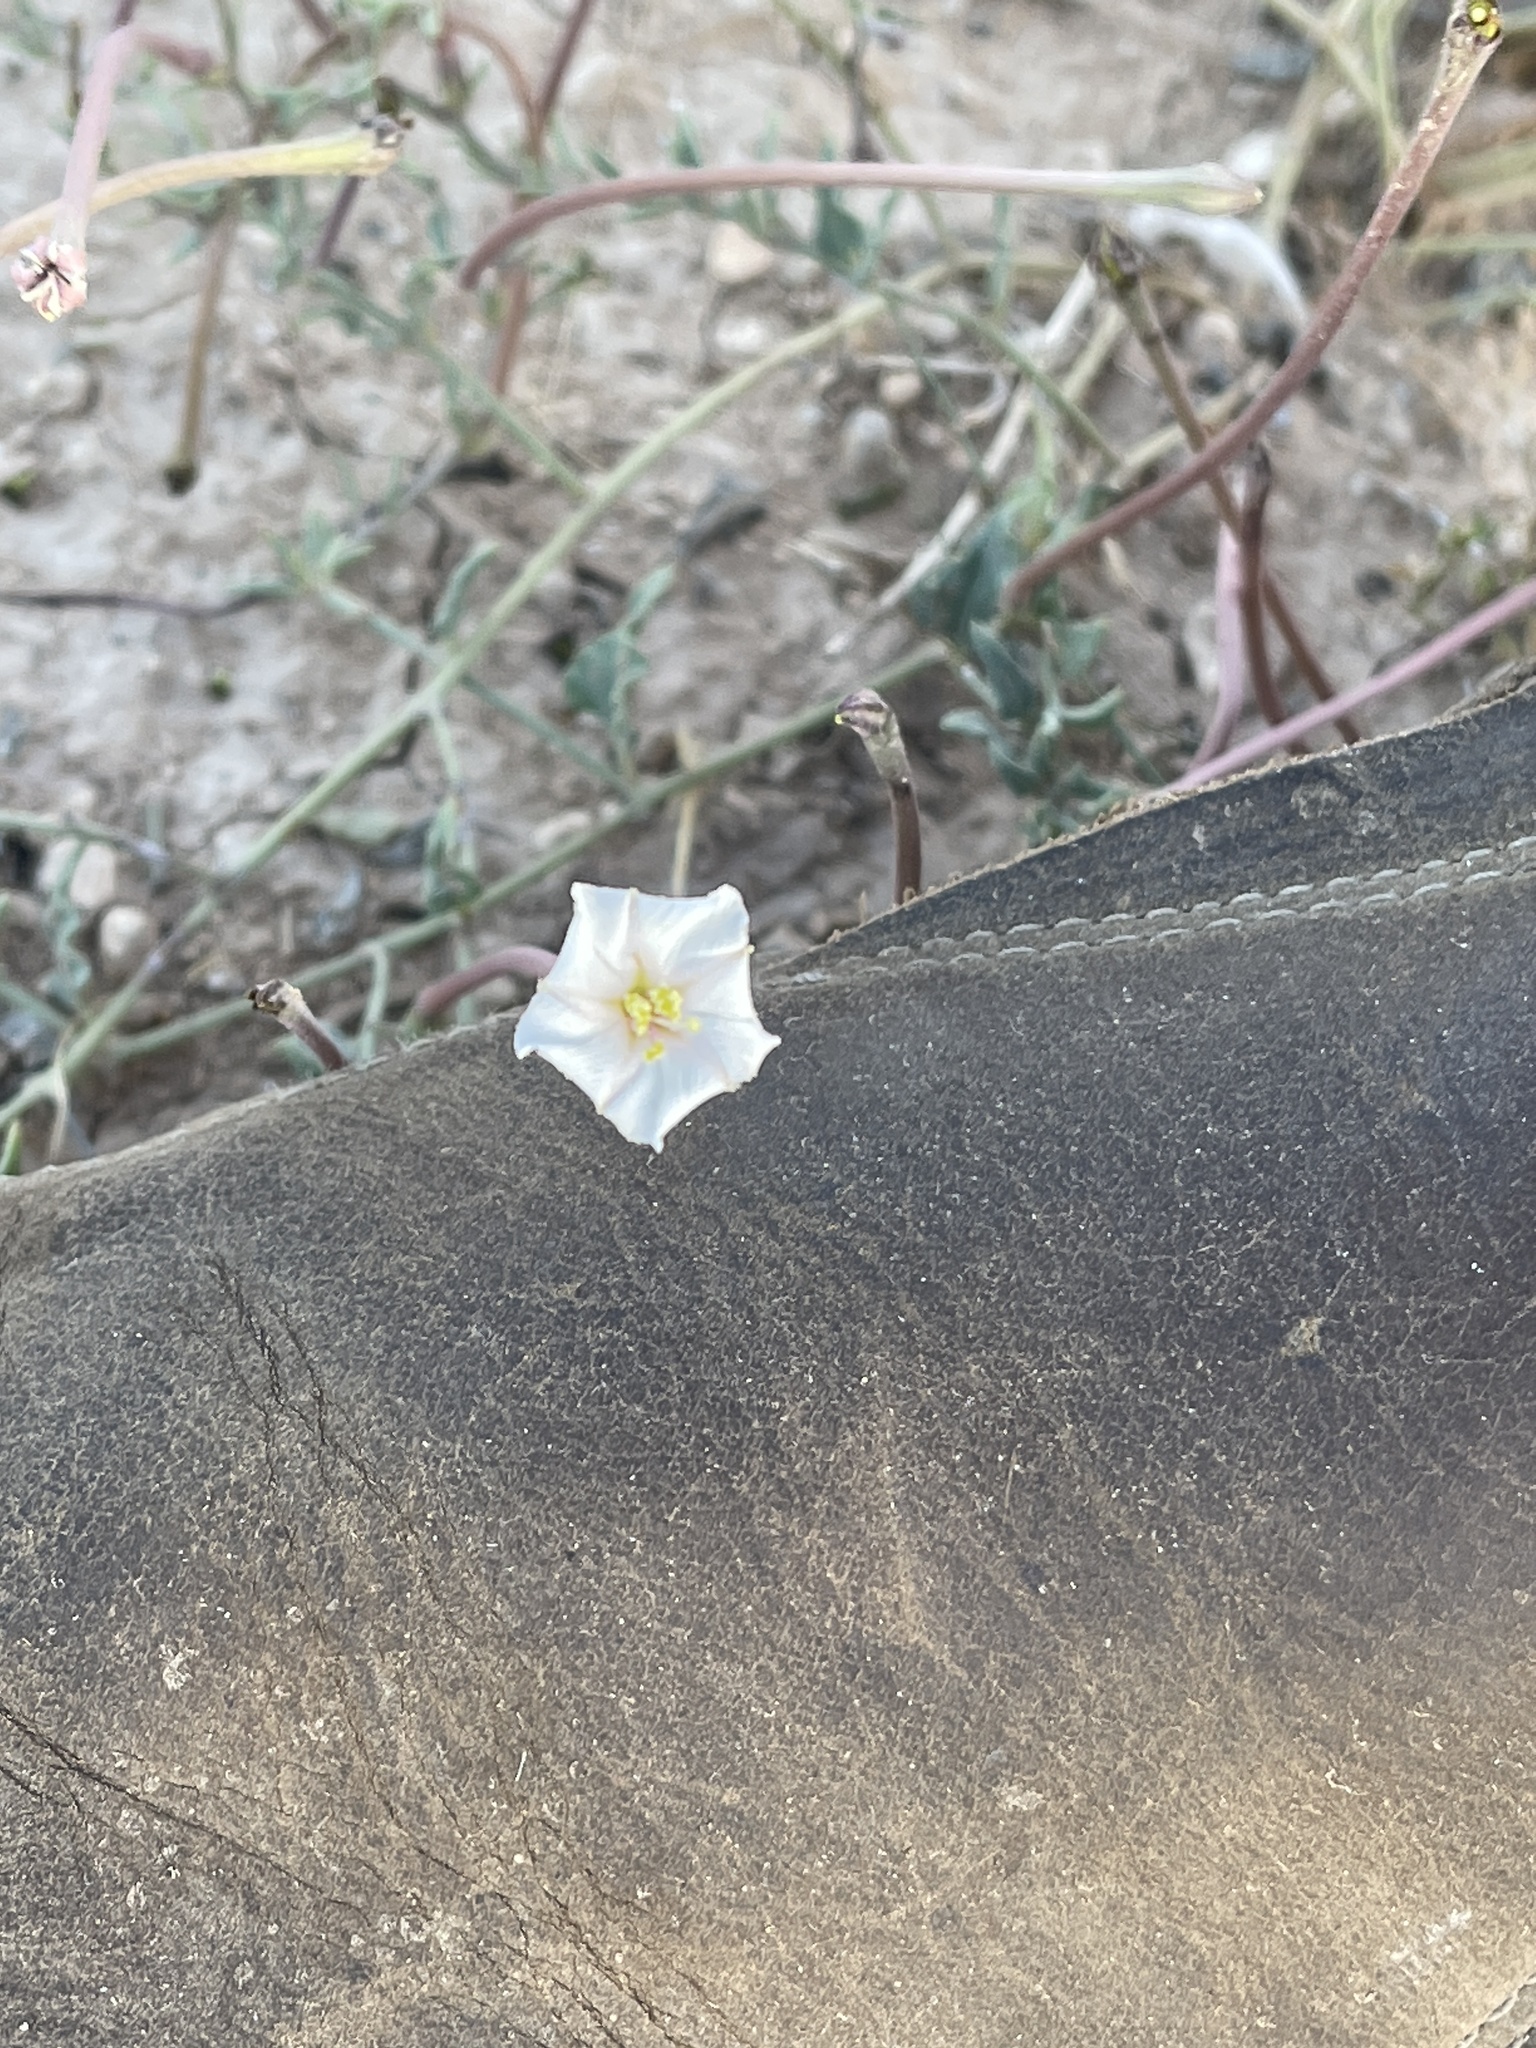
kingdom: Plantae
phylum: Tracheophyta
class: Magnoliopsida
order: Caryophyllales
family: Nyctaginaceae
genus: Acleisanthes
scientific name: Acleisanthes longiflora
